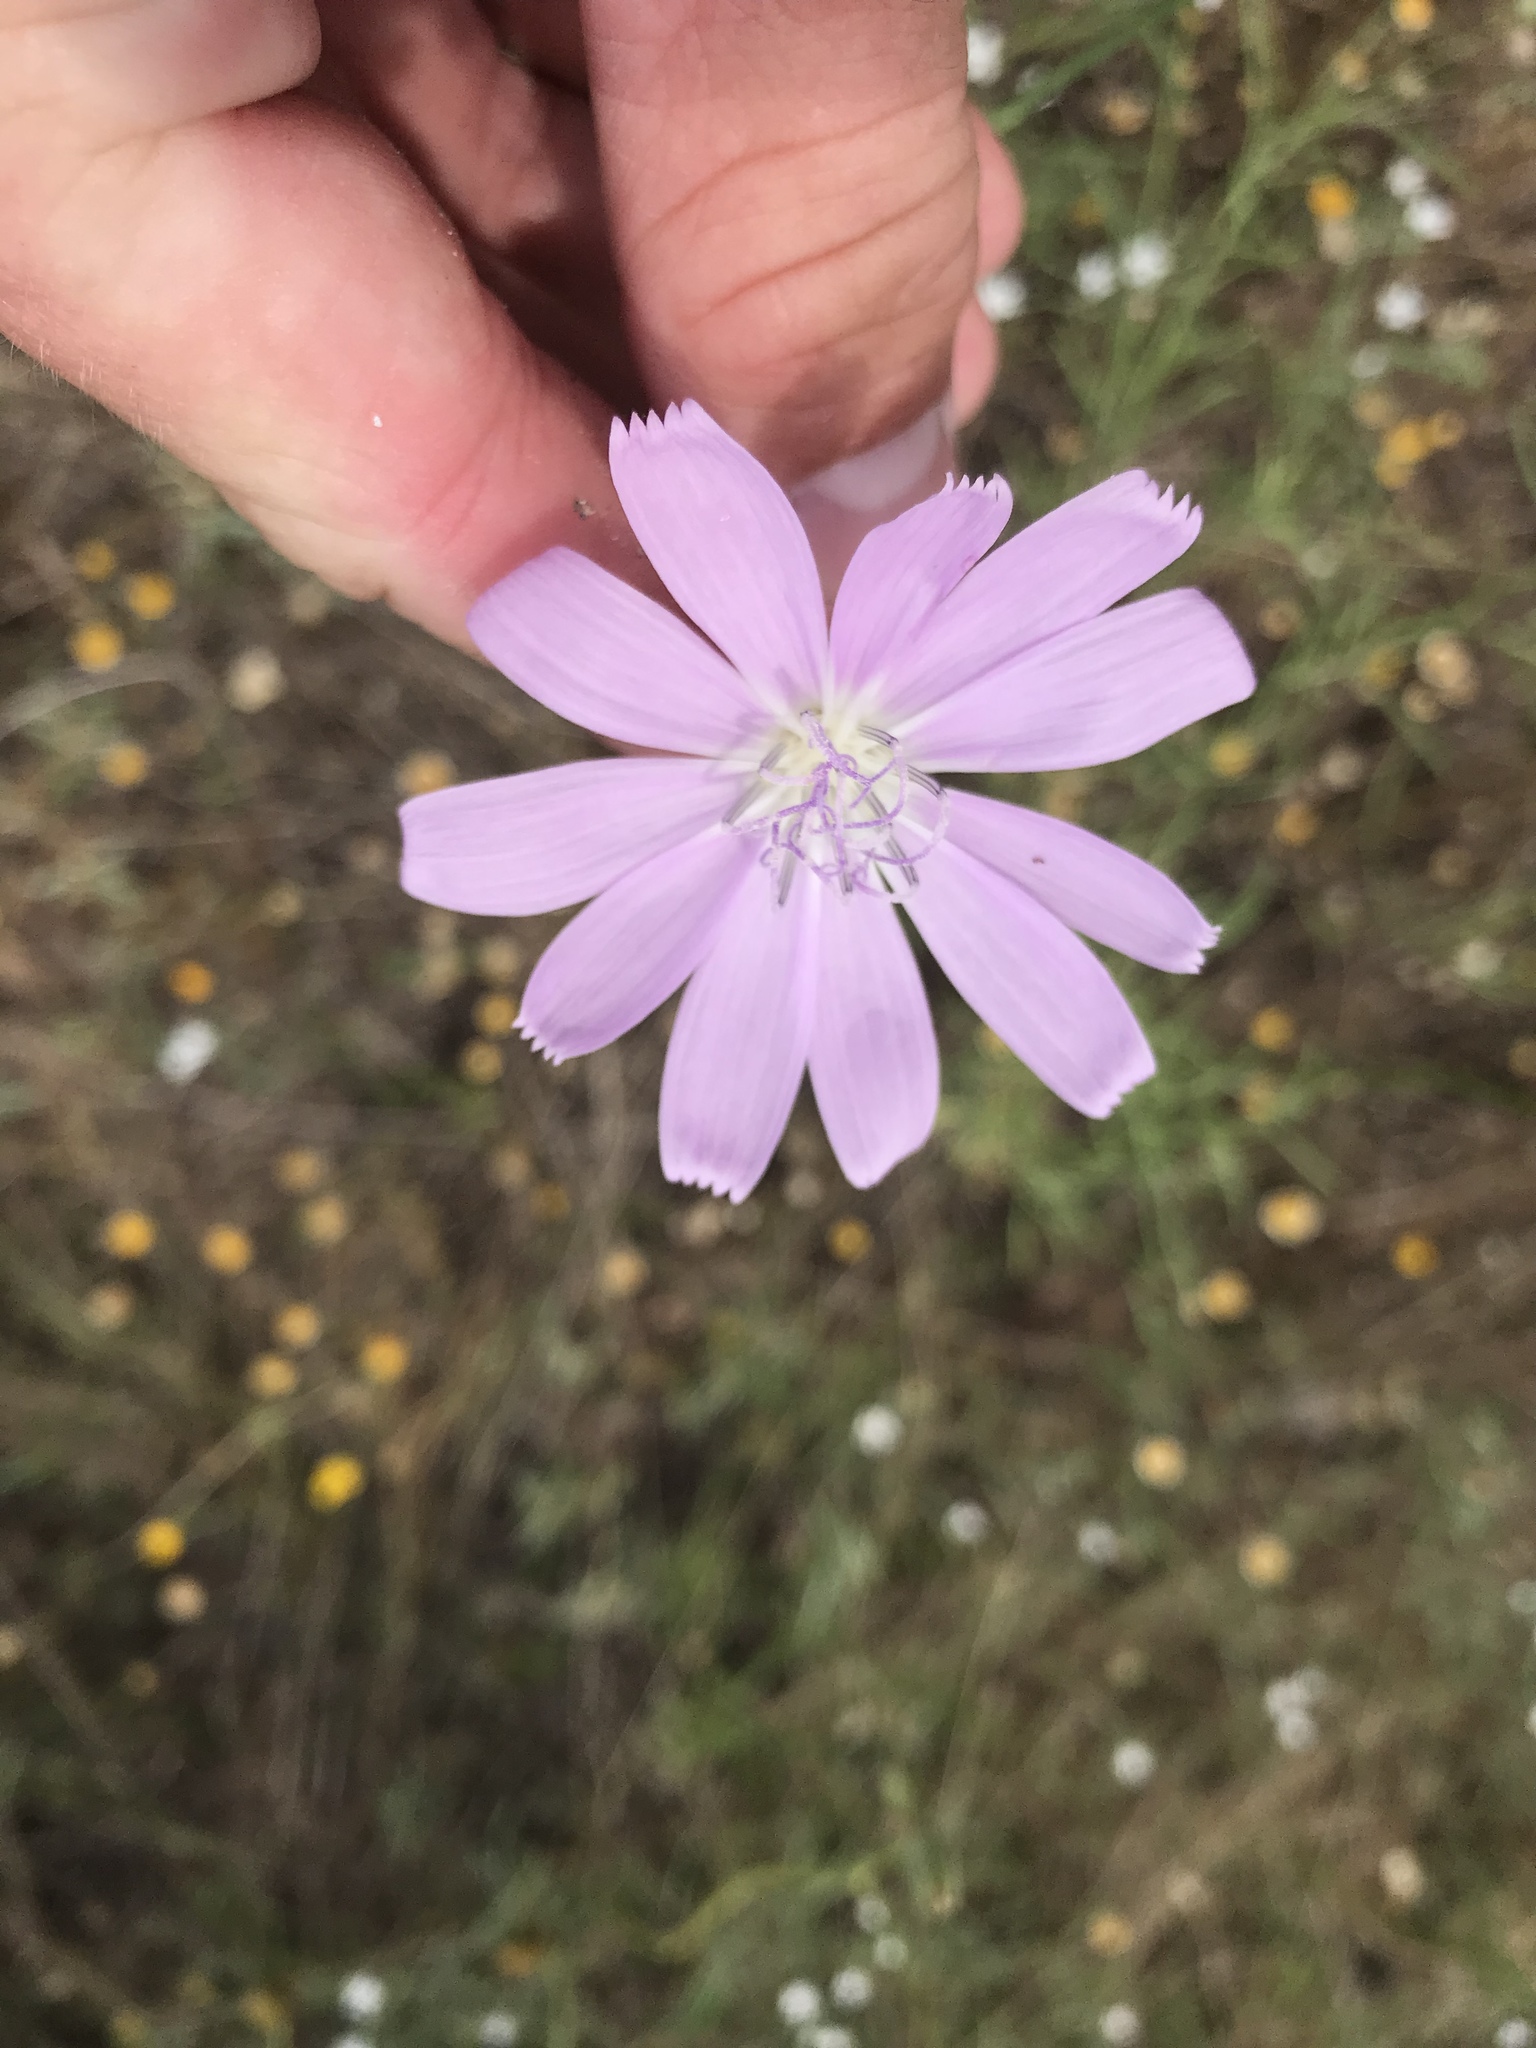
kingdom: Plantae
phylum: Tracheophyta
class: Magnoliopsida
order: Asterales
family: Asteraceae
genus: Lygodesmia
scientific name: Lygodesmia texana
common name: Texas skeleton-plant
